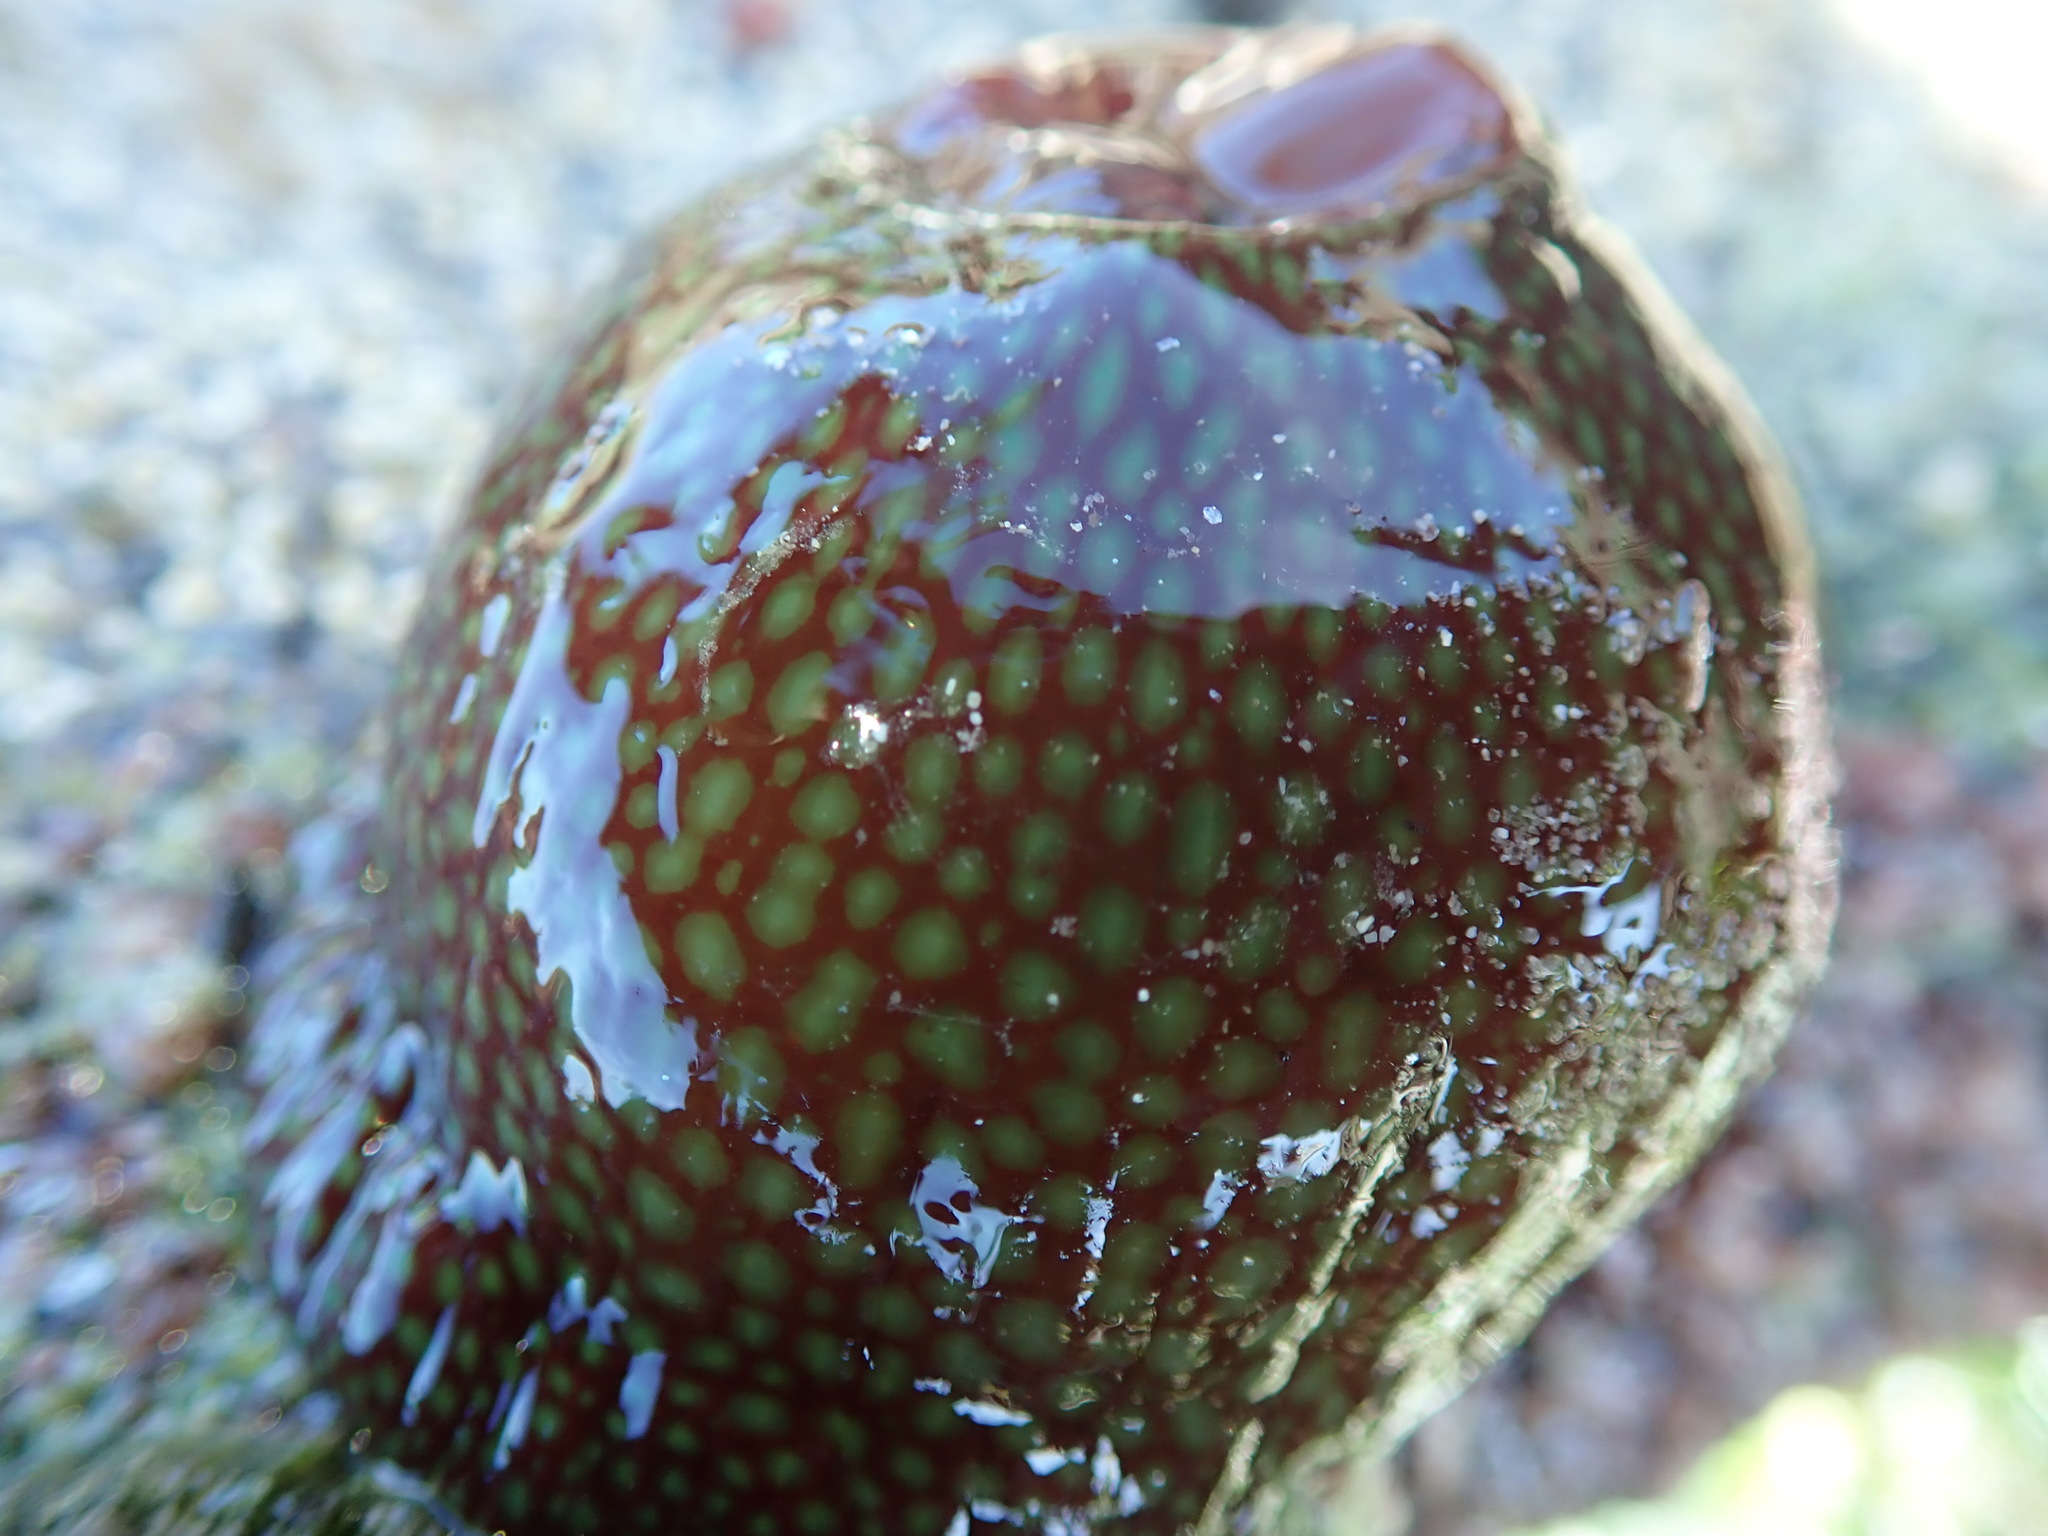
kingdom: Animalia
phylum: Cnidaria
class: Anthozoa
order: Actiniaria
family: Actiniidae
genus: Actinia
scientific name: Actinia fragacea
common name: Strawberry anemone
